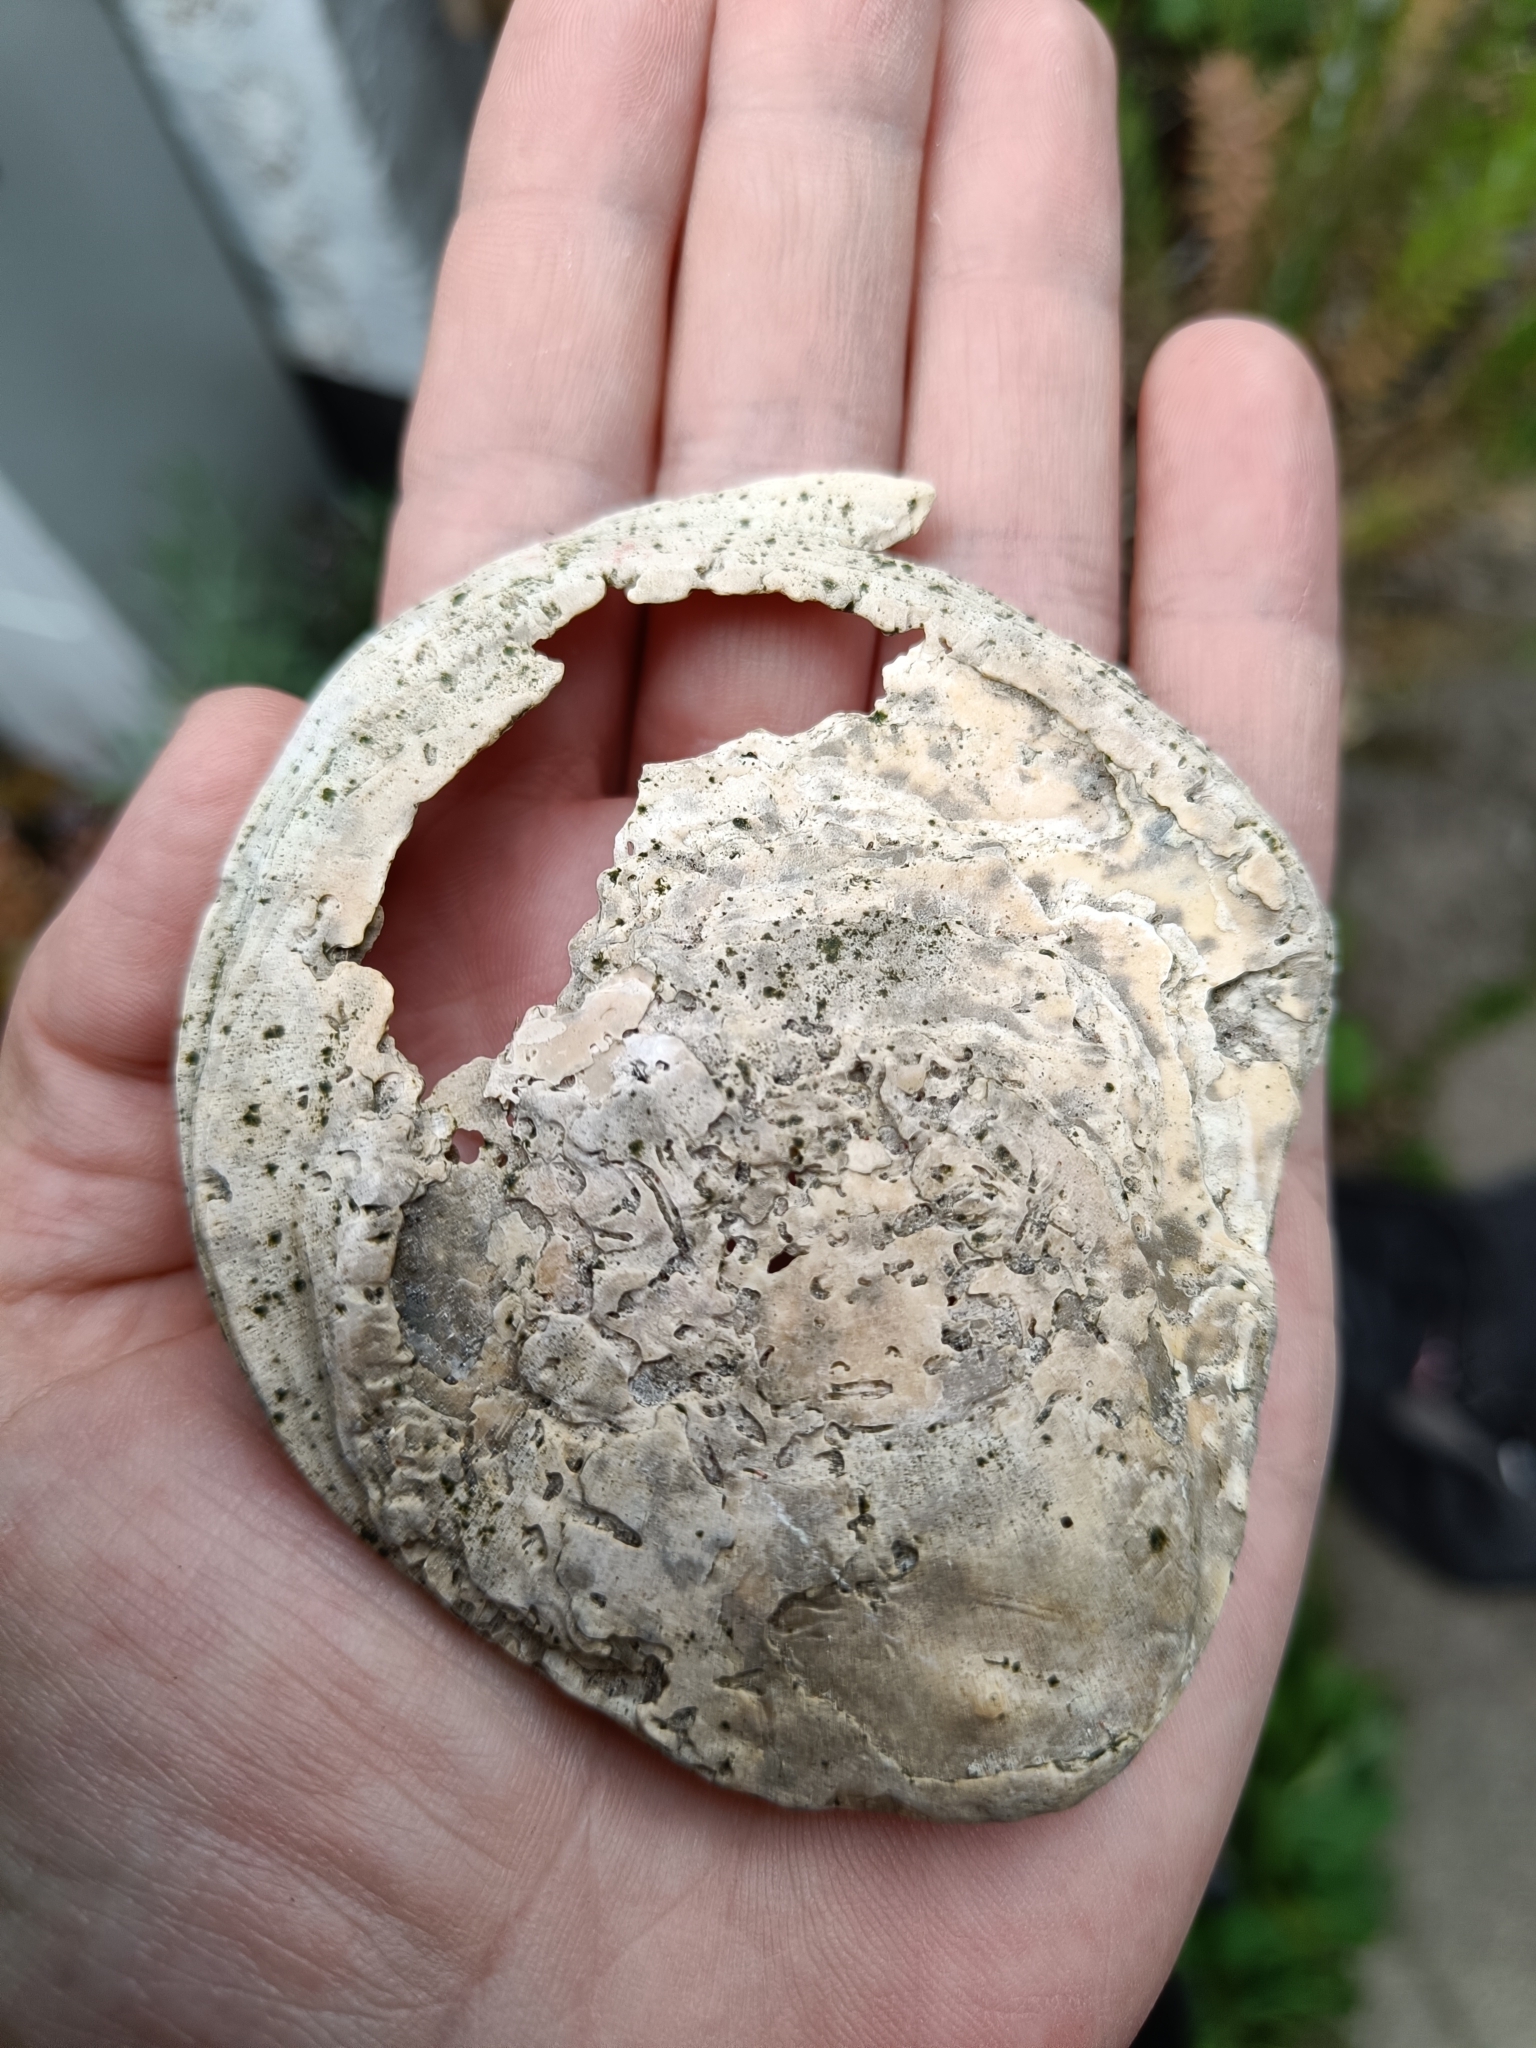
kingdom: Animalia
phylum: Mollusca
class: Bivalvia
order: Ostreida
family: Ostreidae
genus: Ostrea
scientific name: Ostrea edulis
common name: Flat oyster
